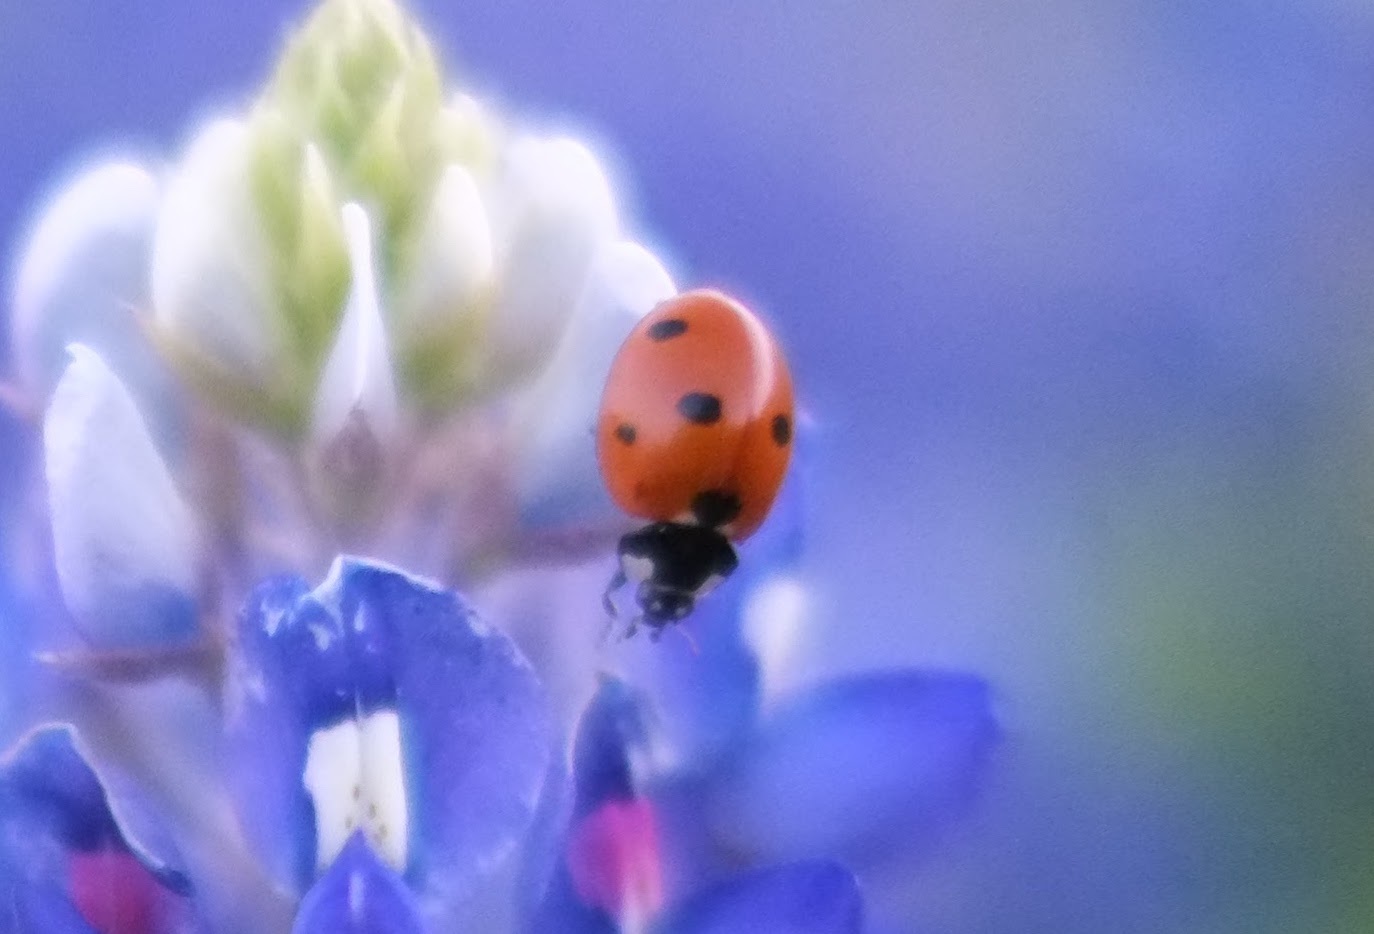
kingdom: Animalia
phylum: Arthropoda
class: Insecta
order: Coleoptera
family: Coccinellidae
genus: Coccinella
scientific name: Coccinella septempunctata
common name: Sevenspotted lady beetle
